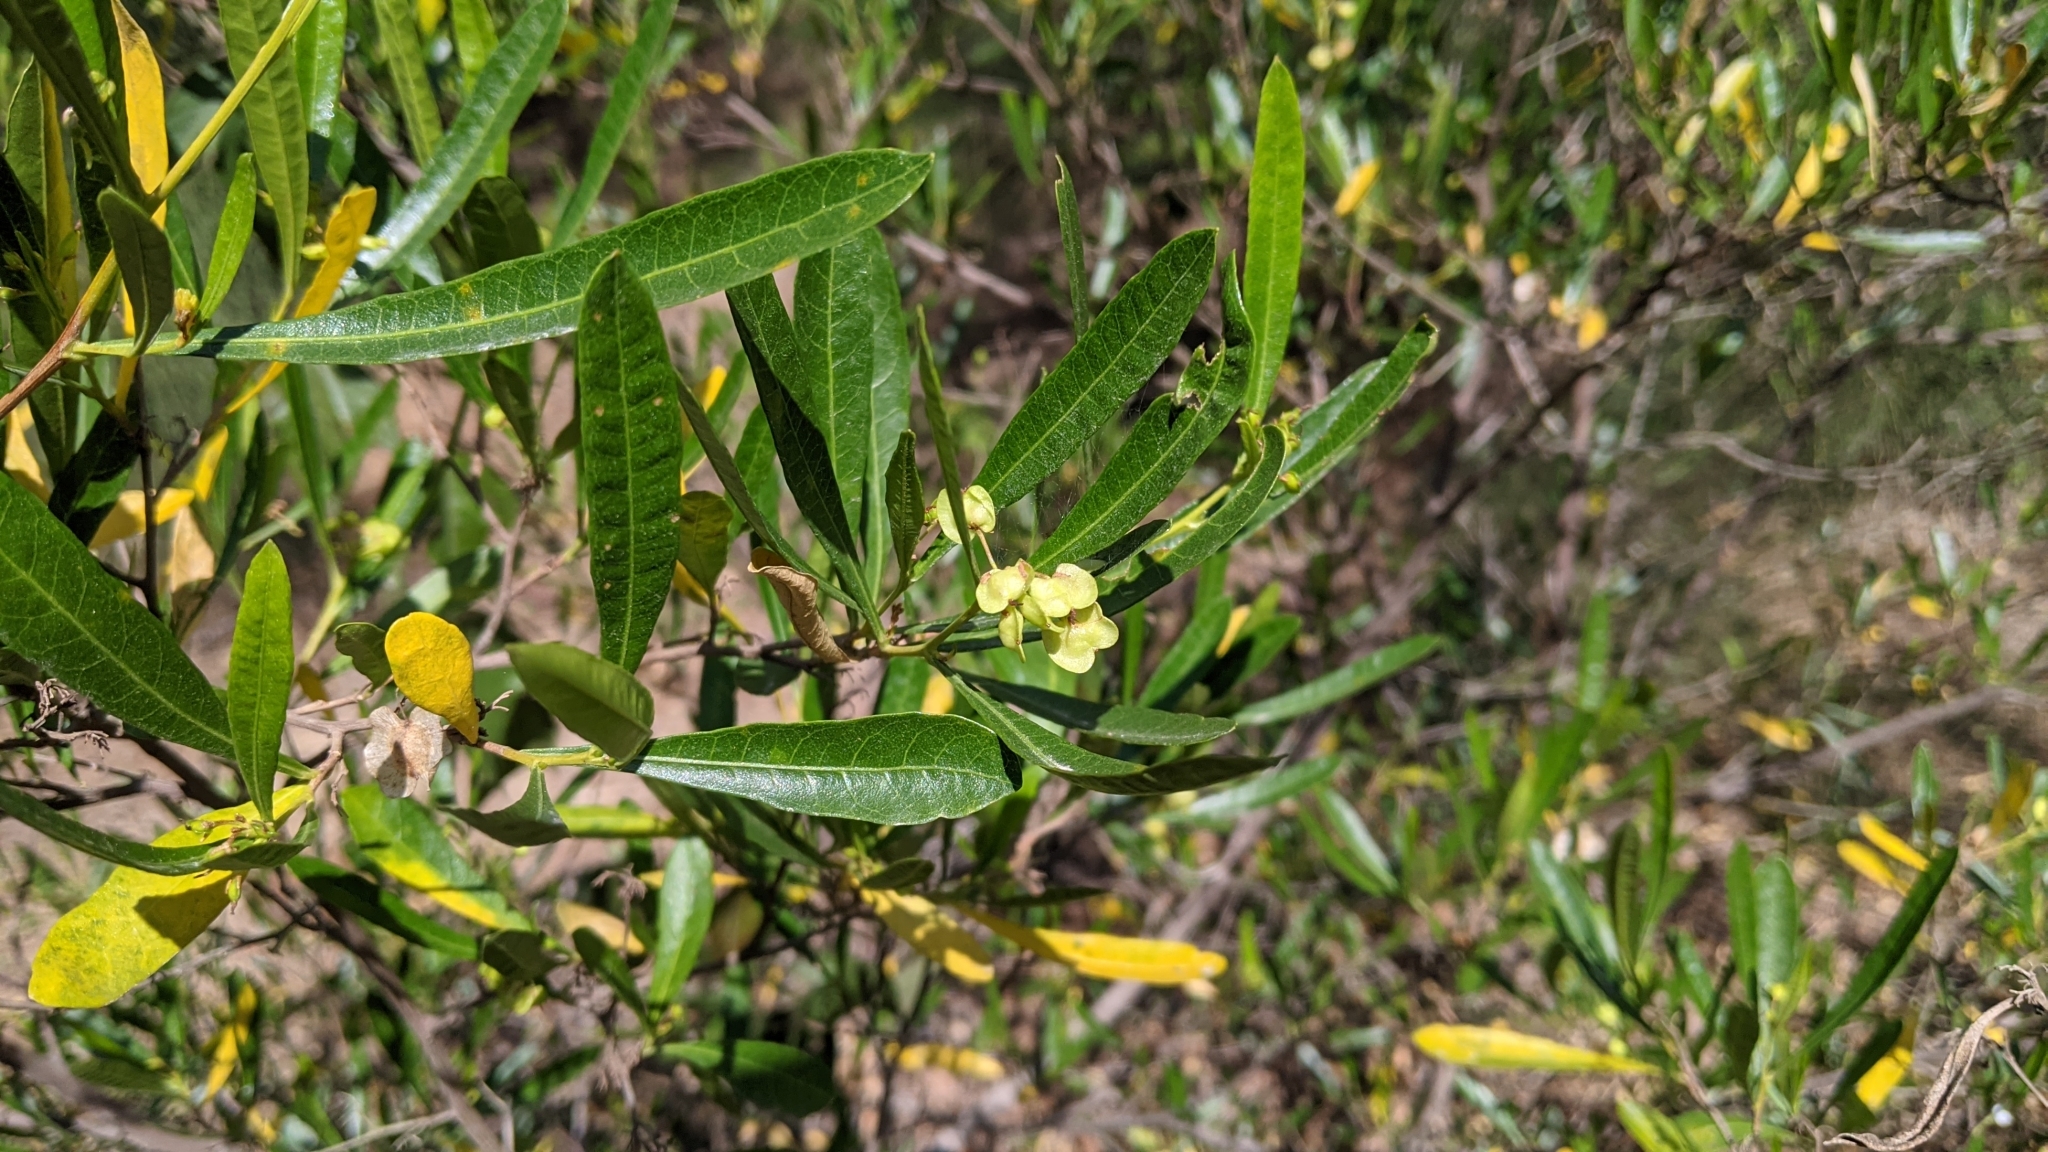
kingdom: Plantae
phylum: Tracheophyta
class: Magnoliopsida
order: Sapindales
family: Sapindaceae
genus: Dodonaea
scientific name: Dodonaea viscosa
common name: Hopbush
